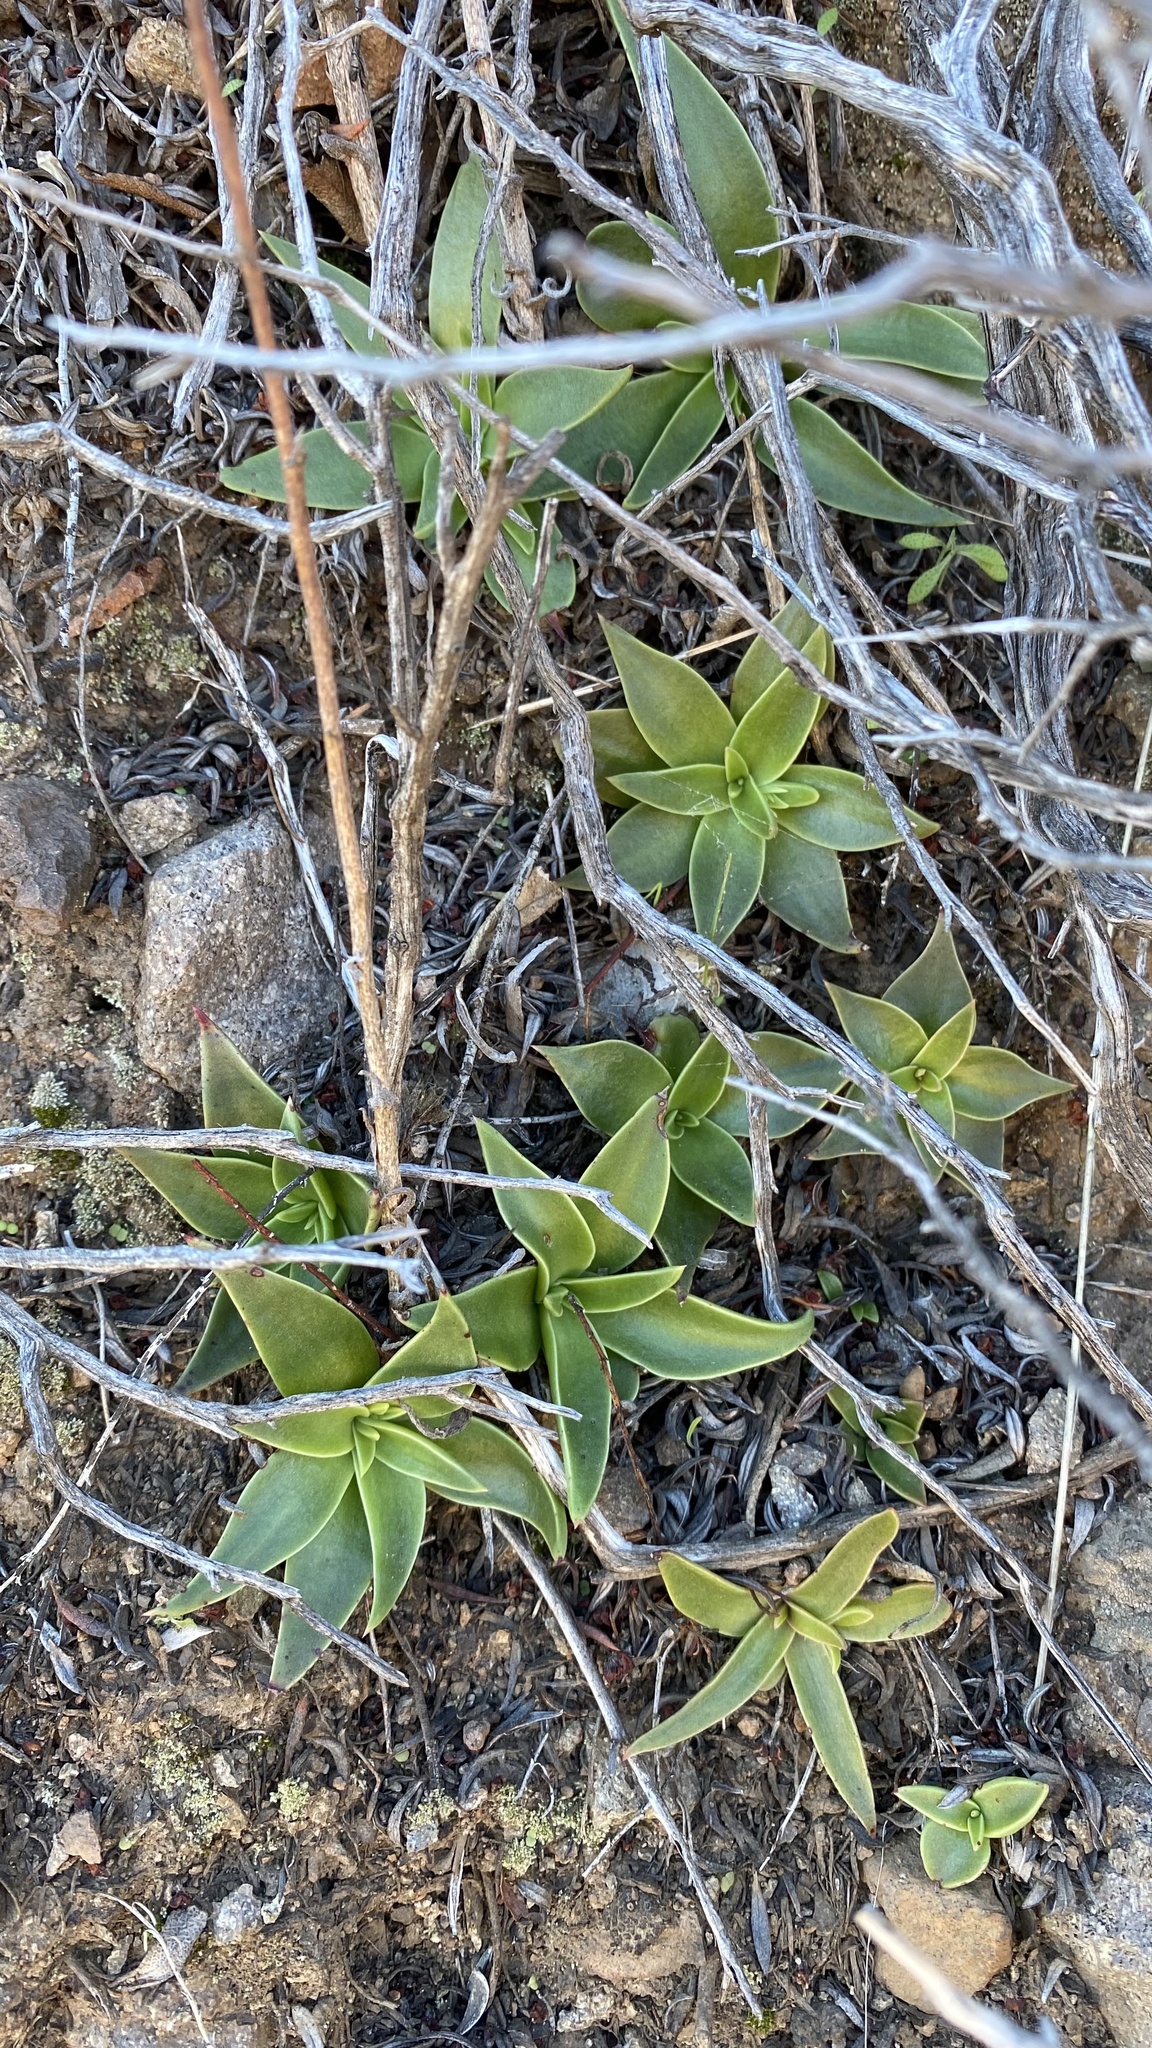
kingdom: Plantae
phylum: Tracheophyta
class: Magnoliopsida
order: Saxifragales
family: Crassulaceae
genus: Dudleya
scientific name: Dudleya lanceolata
